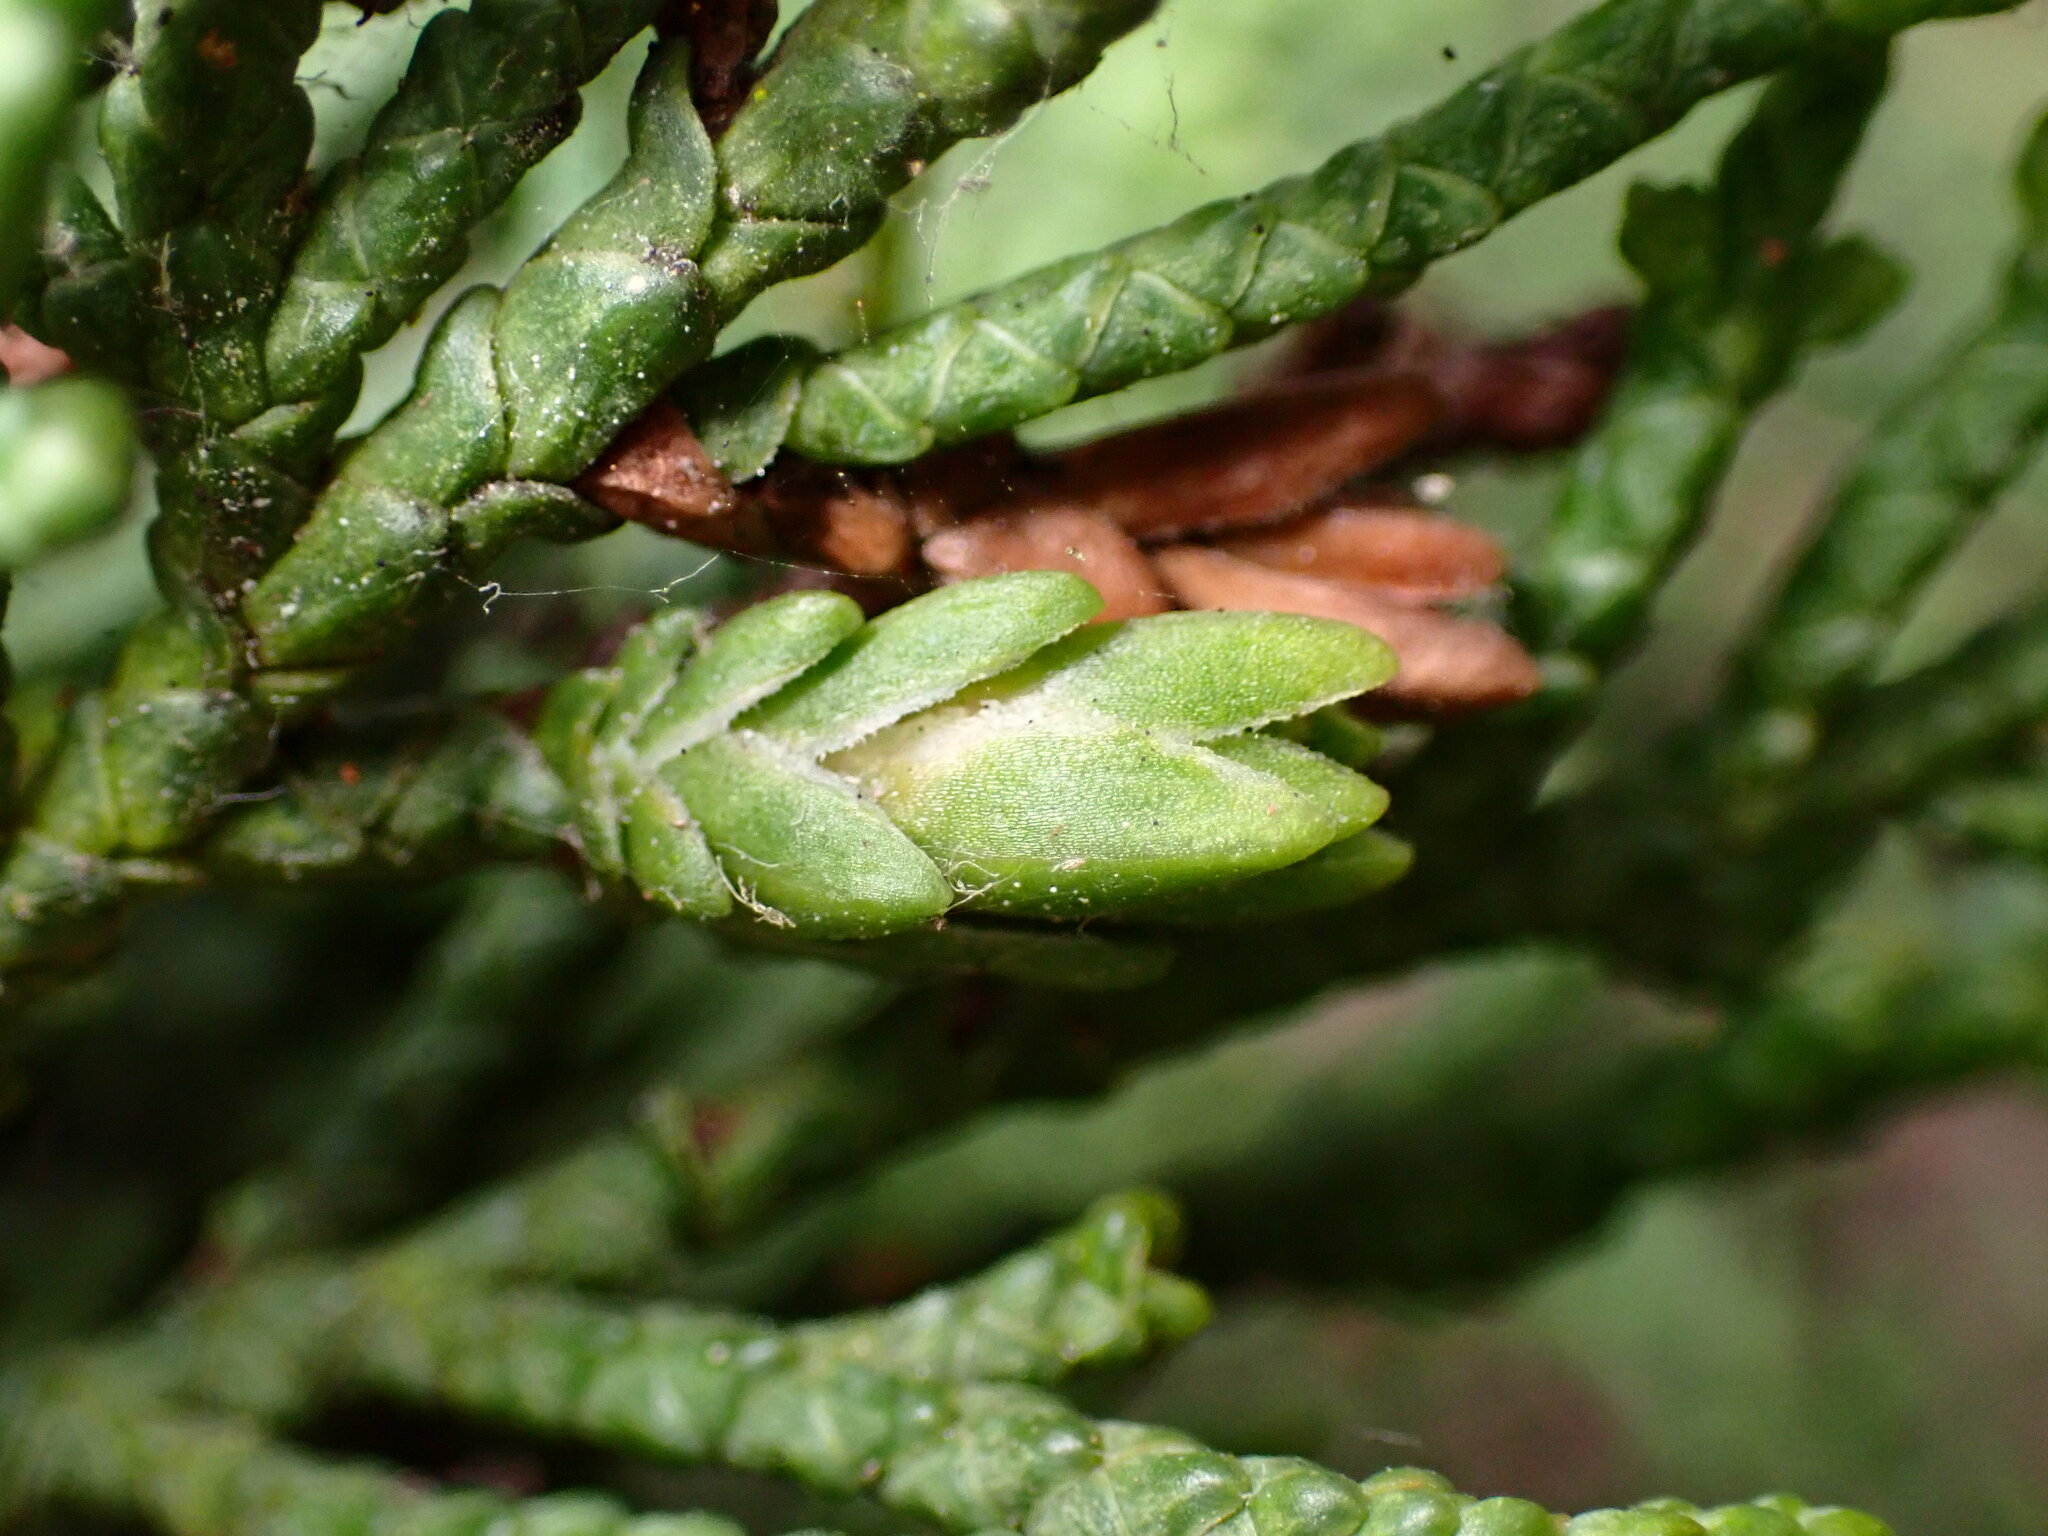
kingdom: Animalia
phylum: Arthropoda
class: Insecta
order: Diptera
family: Cecidomyiidae
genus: Oligotrophus
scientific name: Oligotrophus cupressi
